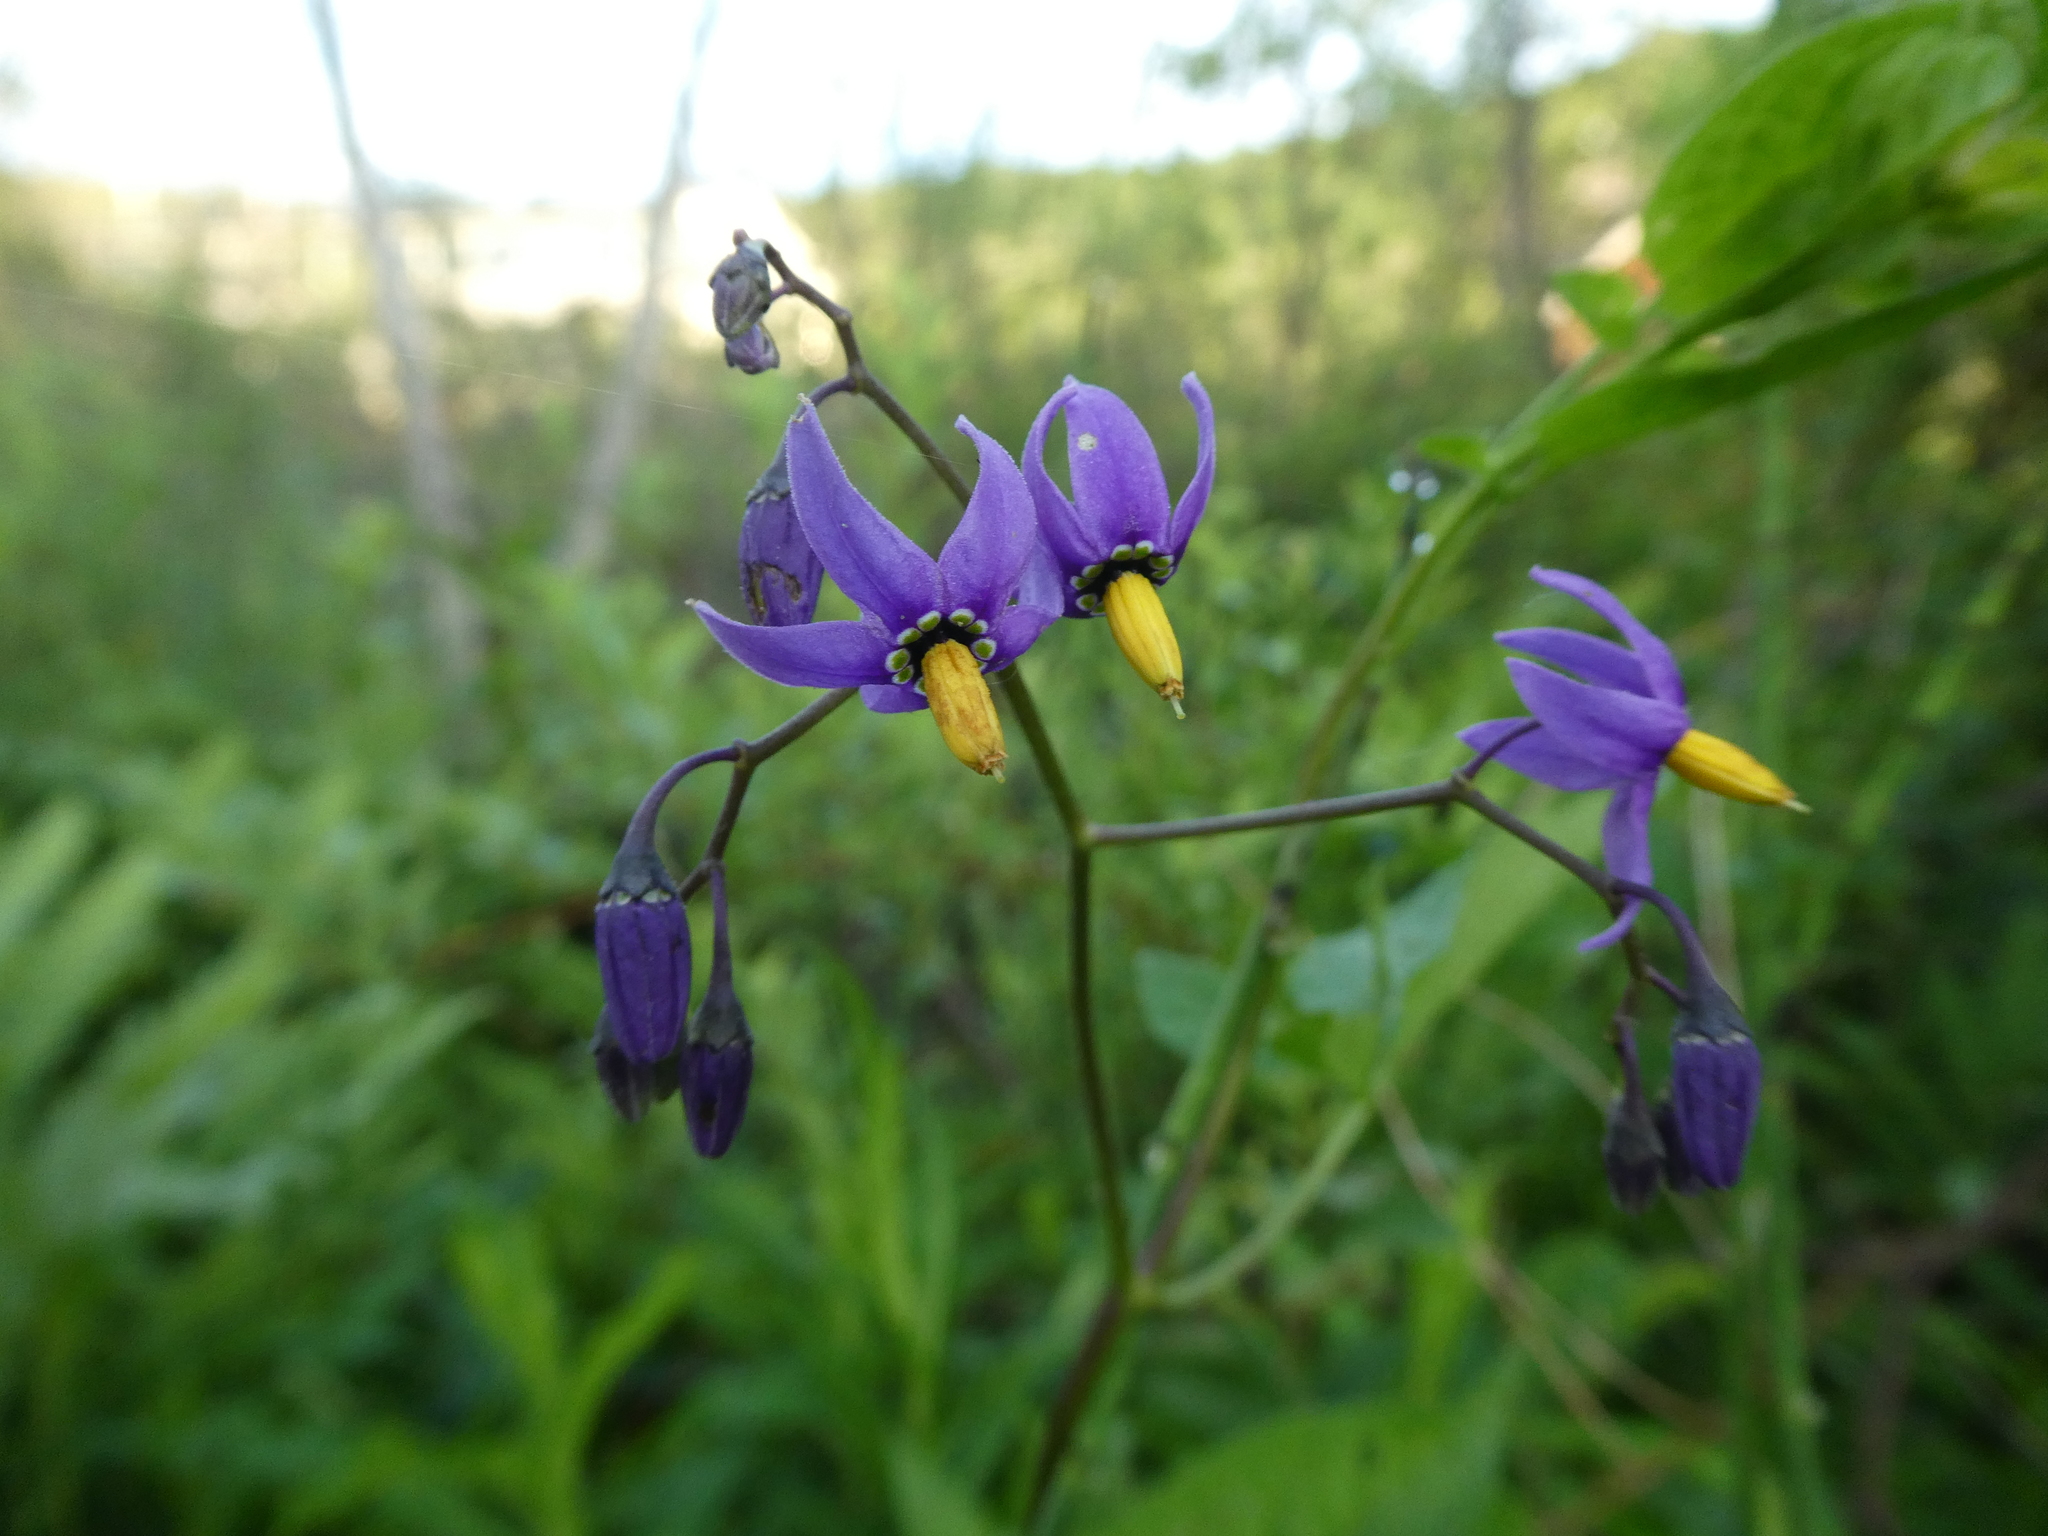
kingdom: Plantae
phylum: Tracheophyta
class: Magnoliopsida
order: Solanales
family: Solanaceae
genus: Solanum
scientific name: Solanum dulcamara
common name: Climbing nightshade
